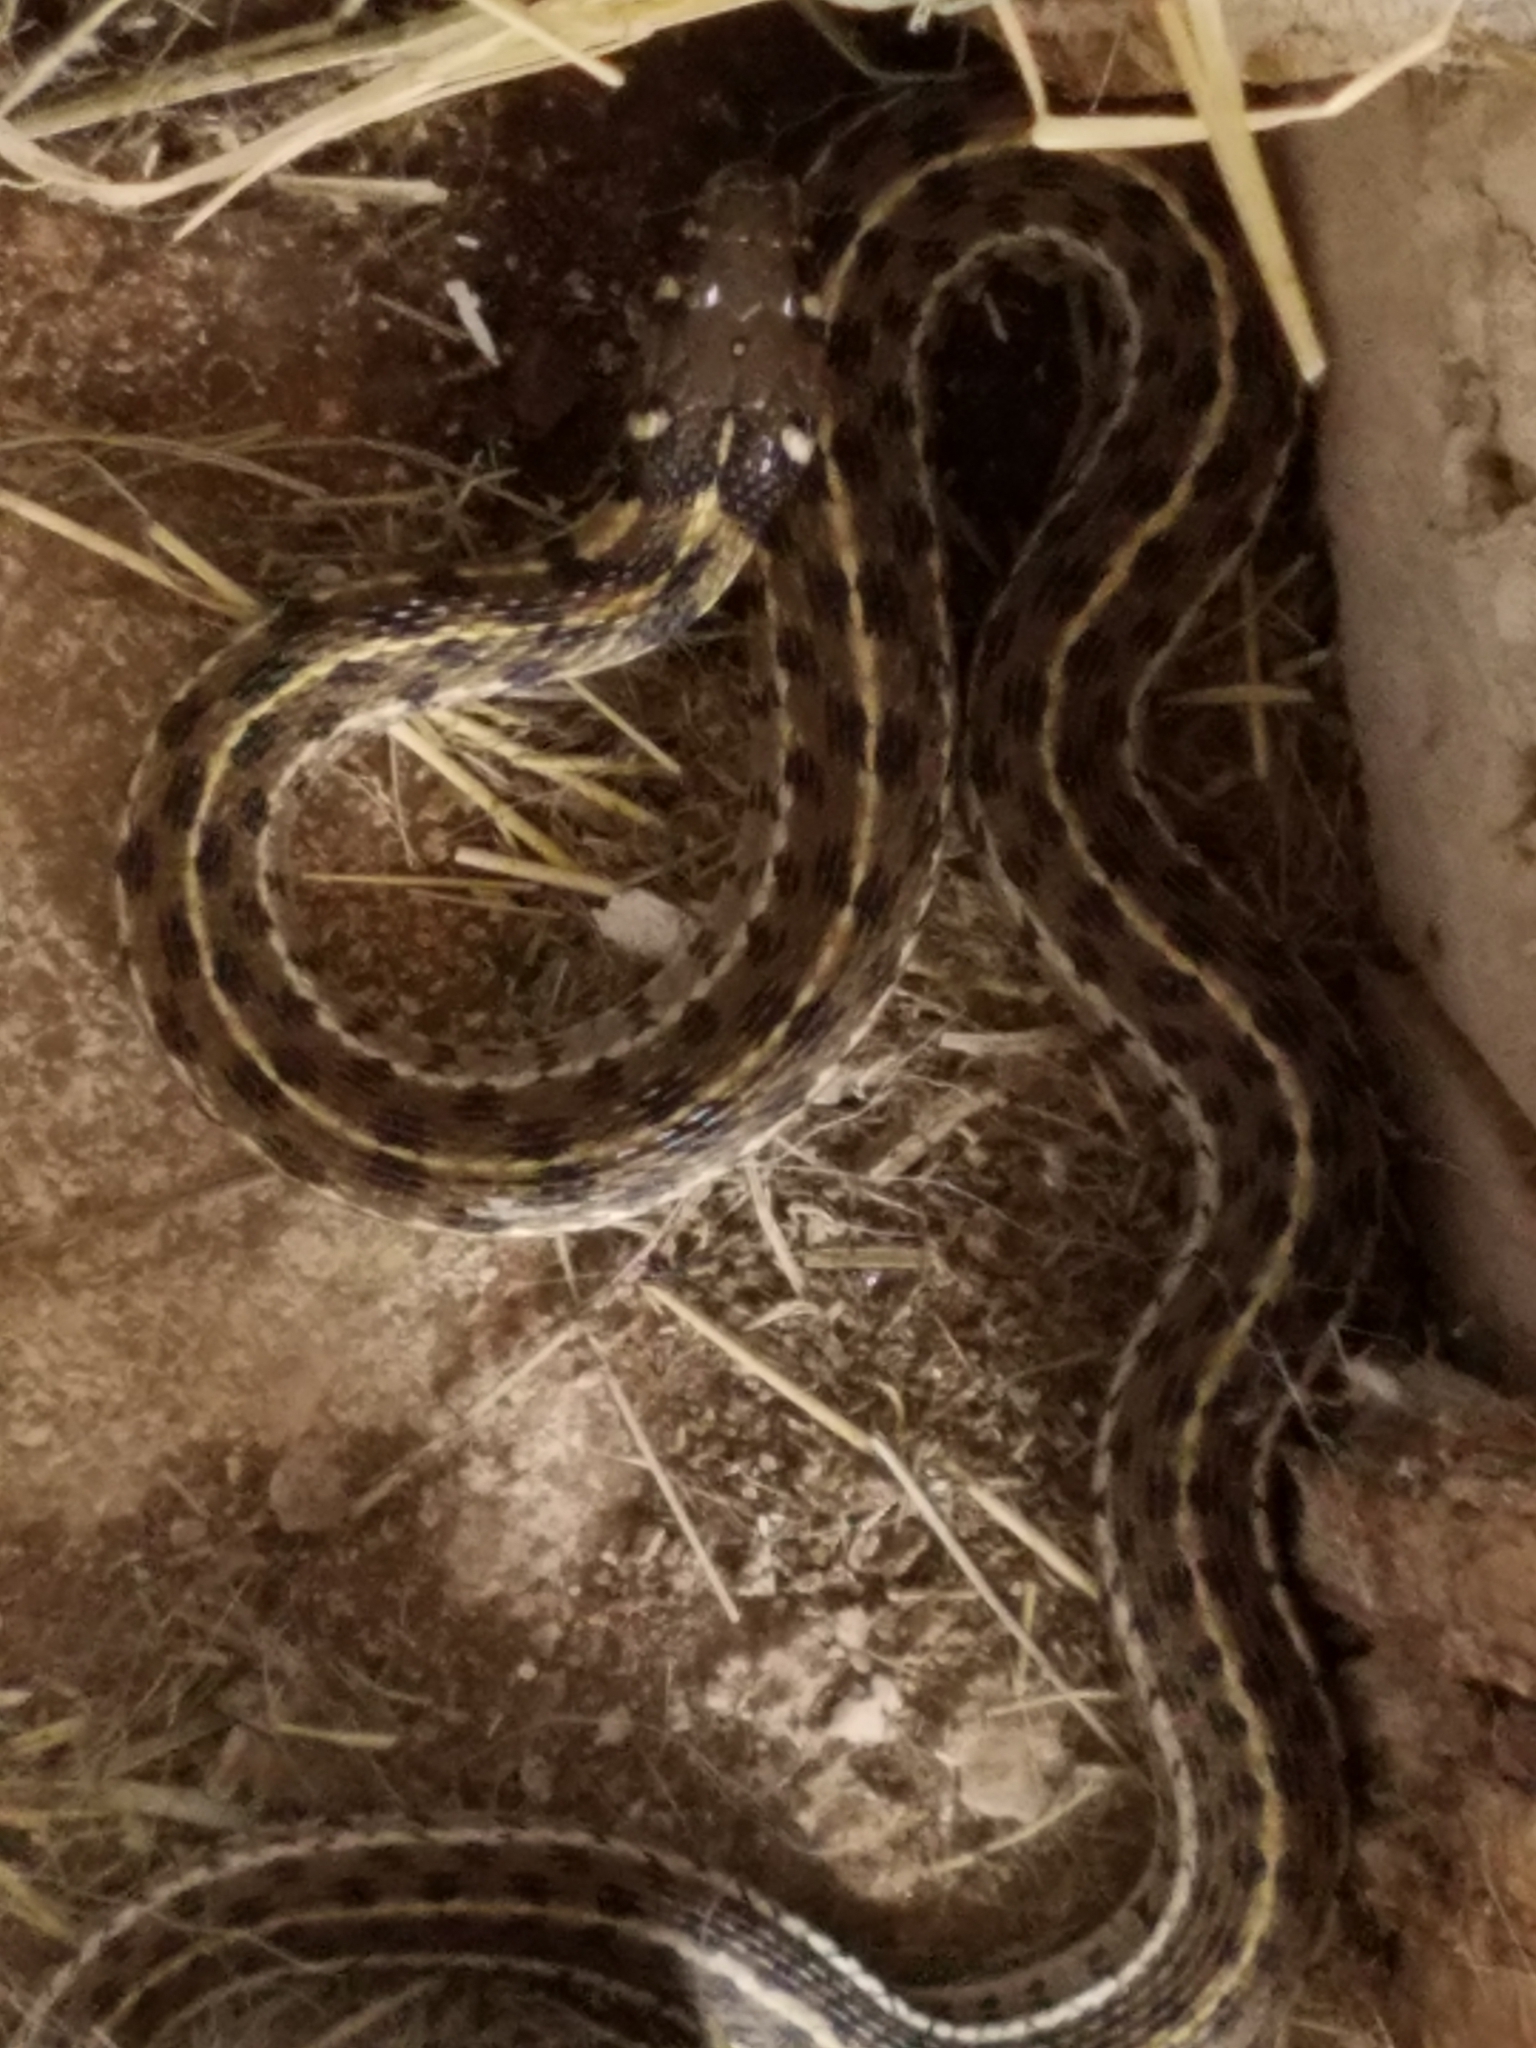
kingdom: Animalia
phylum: Chordata
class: Squamata
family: Colubridae
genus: Thamnophis
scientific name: Thamnophis marcianus
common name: Checkered garter snake
